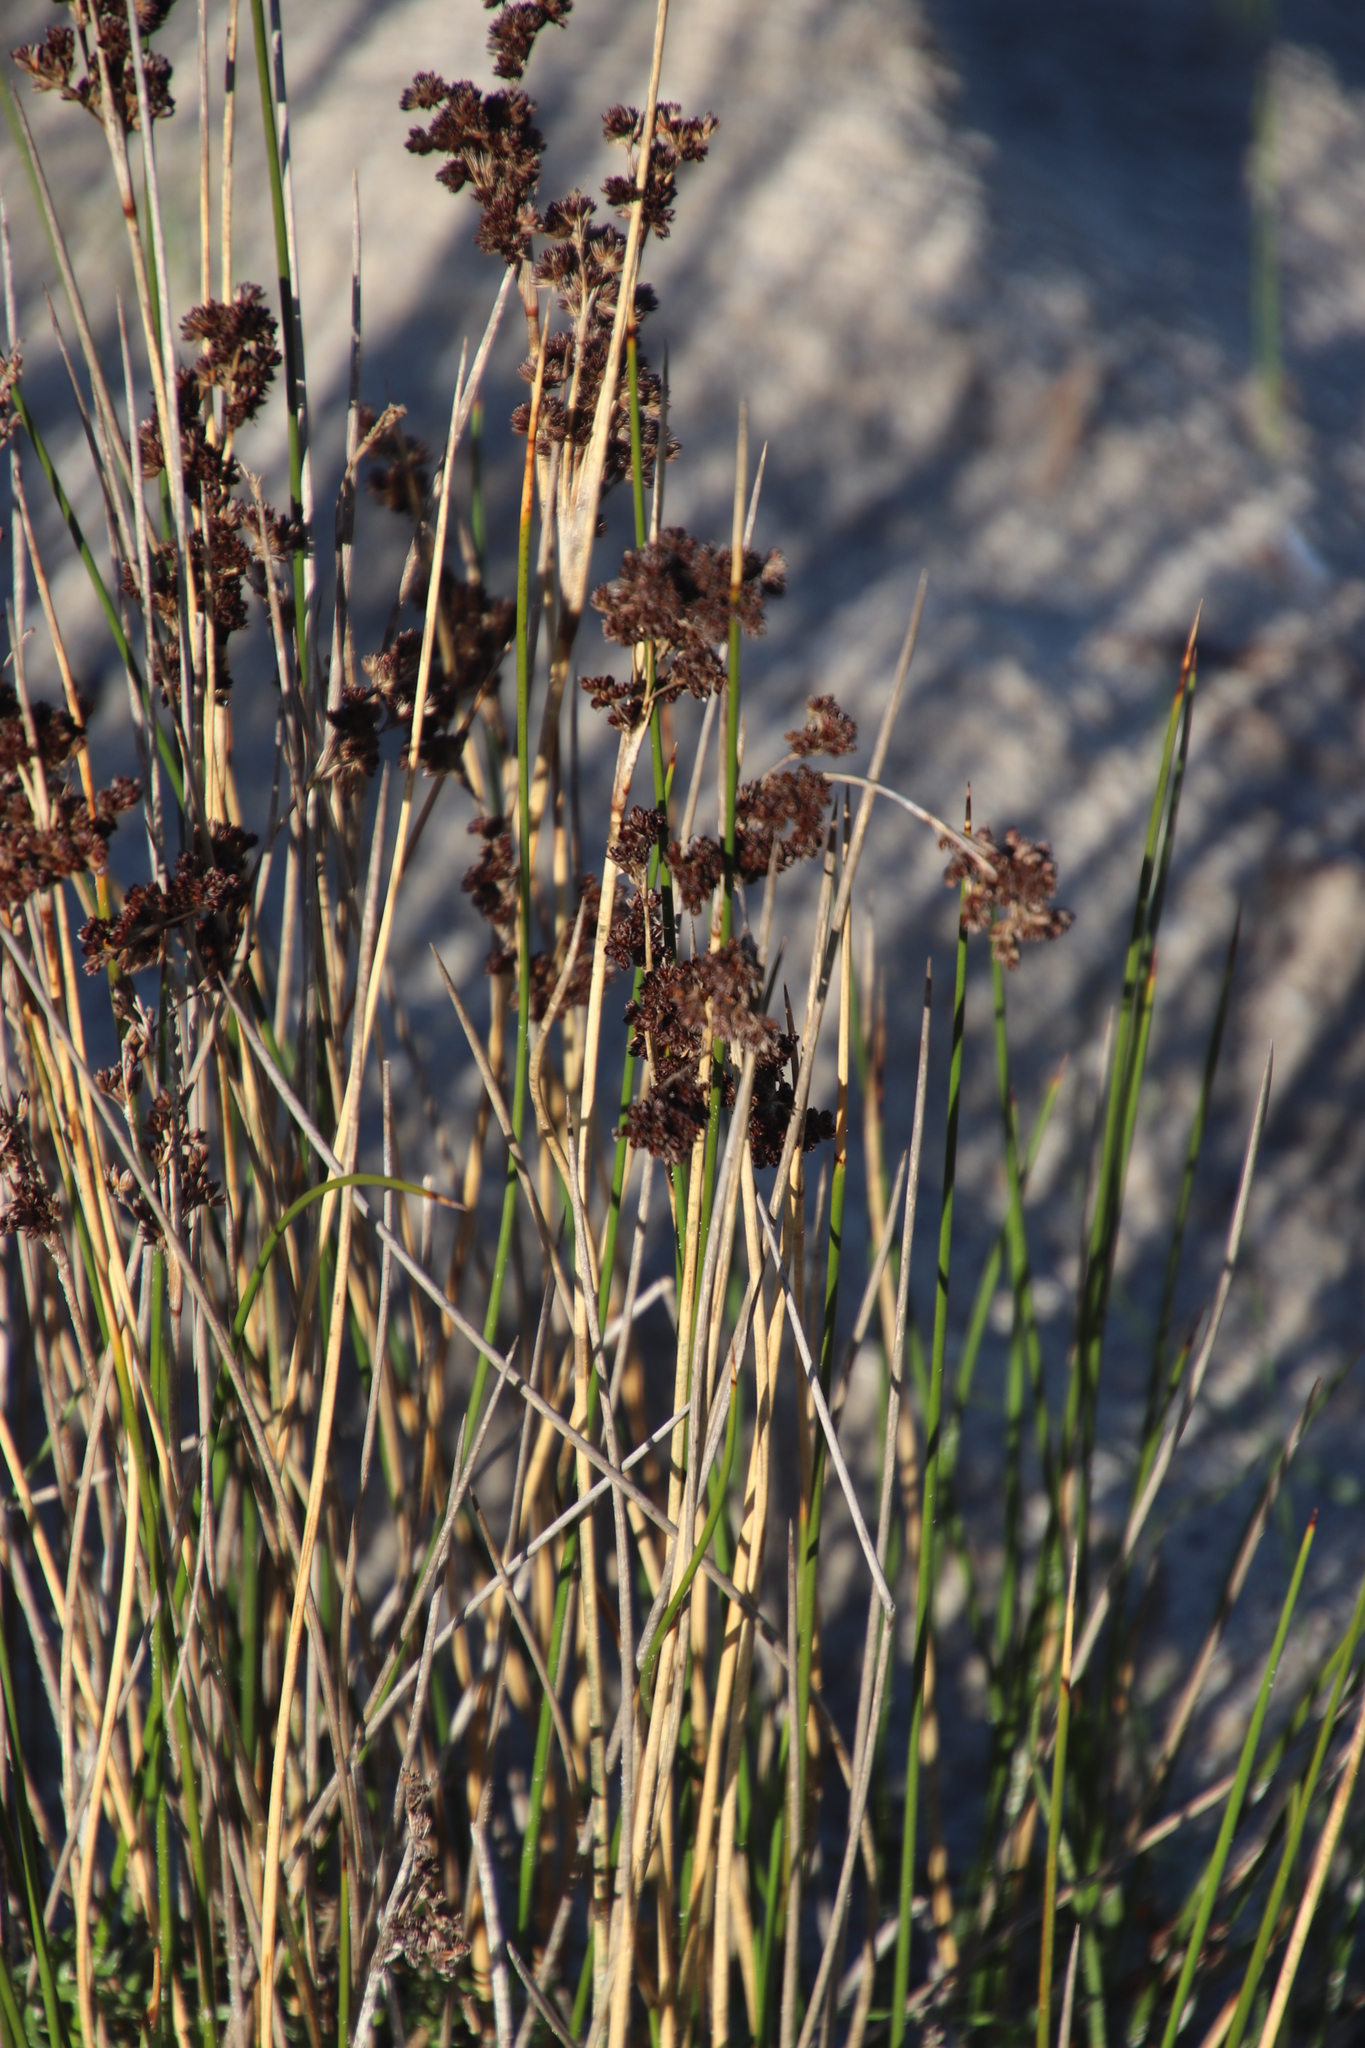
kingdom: Plantae
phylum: Tracheophyta
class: Liliopsida
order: Poales
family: Juncaceae
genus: Juncus
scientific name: Juncus acutus
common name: Sharp rush
